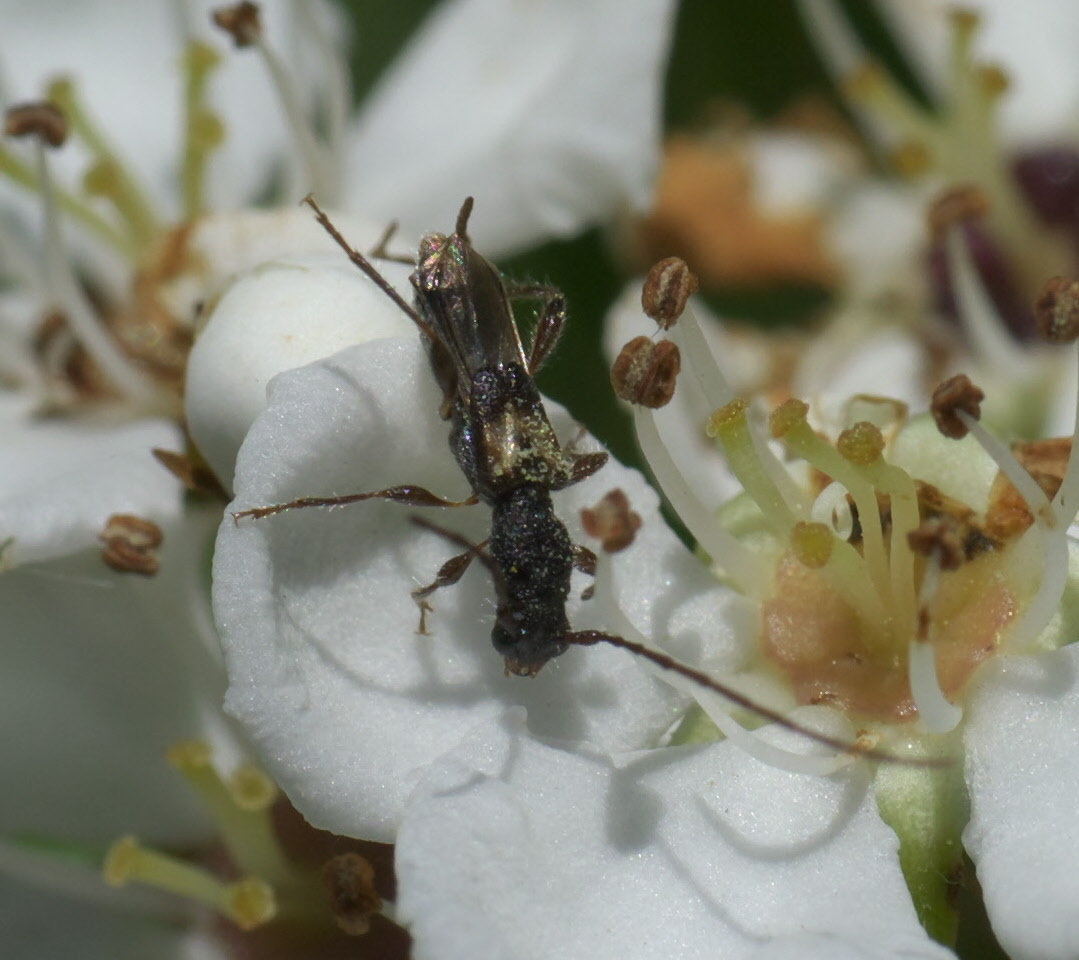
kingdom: Animalia
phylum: Arthropoda
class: Insecta
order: Coleoptera
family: Cerambycidae
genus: Molorchus
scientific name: Molorchus bimaculatus
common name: Bimaculate longhorn beetle
